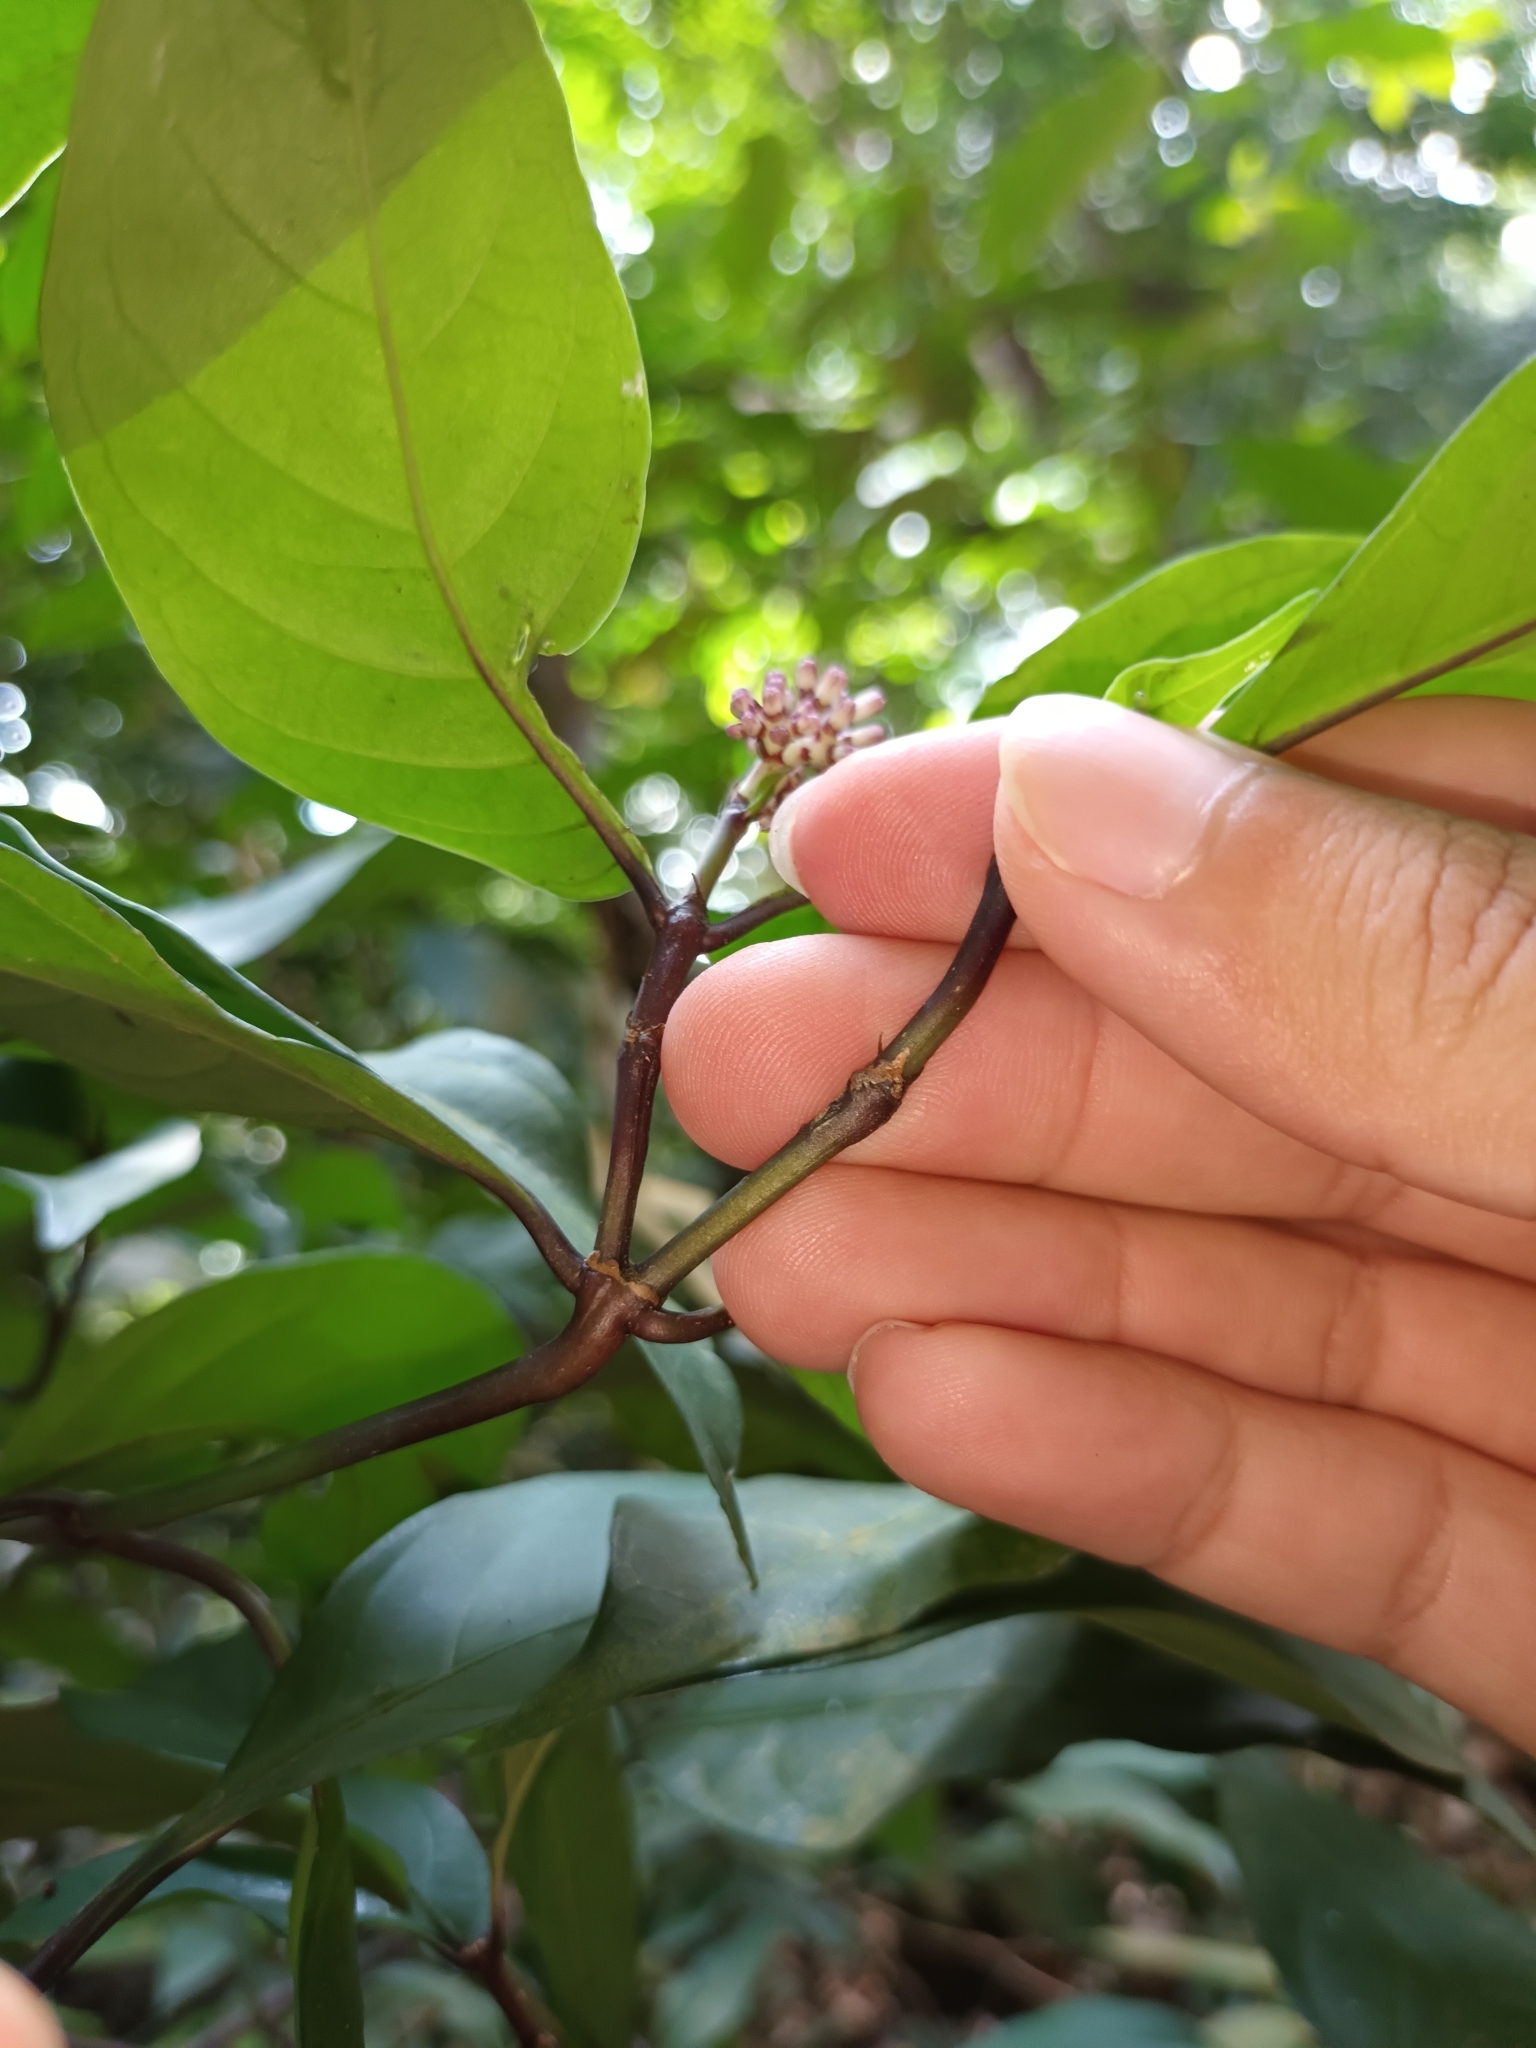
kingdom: Plantae
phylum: Tracheophyta
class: Magnoliopsida
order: Gentianales
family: Rubiaceae
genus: Chassalia
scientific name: Chassalia curviflora
